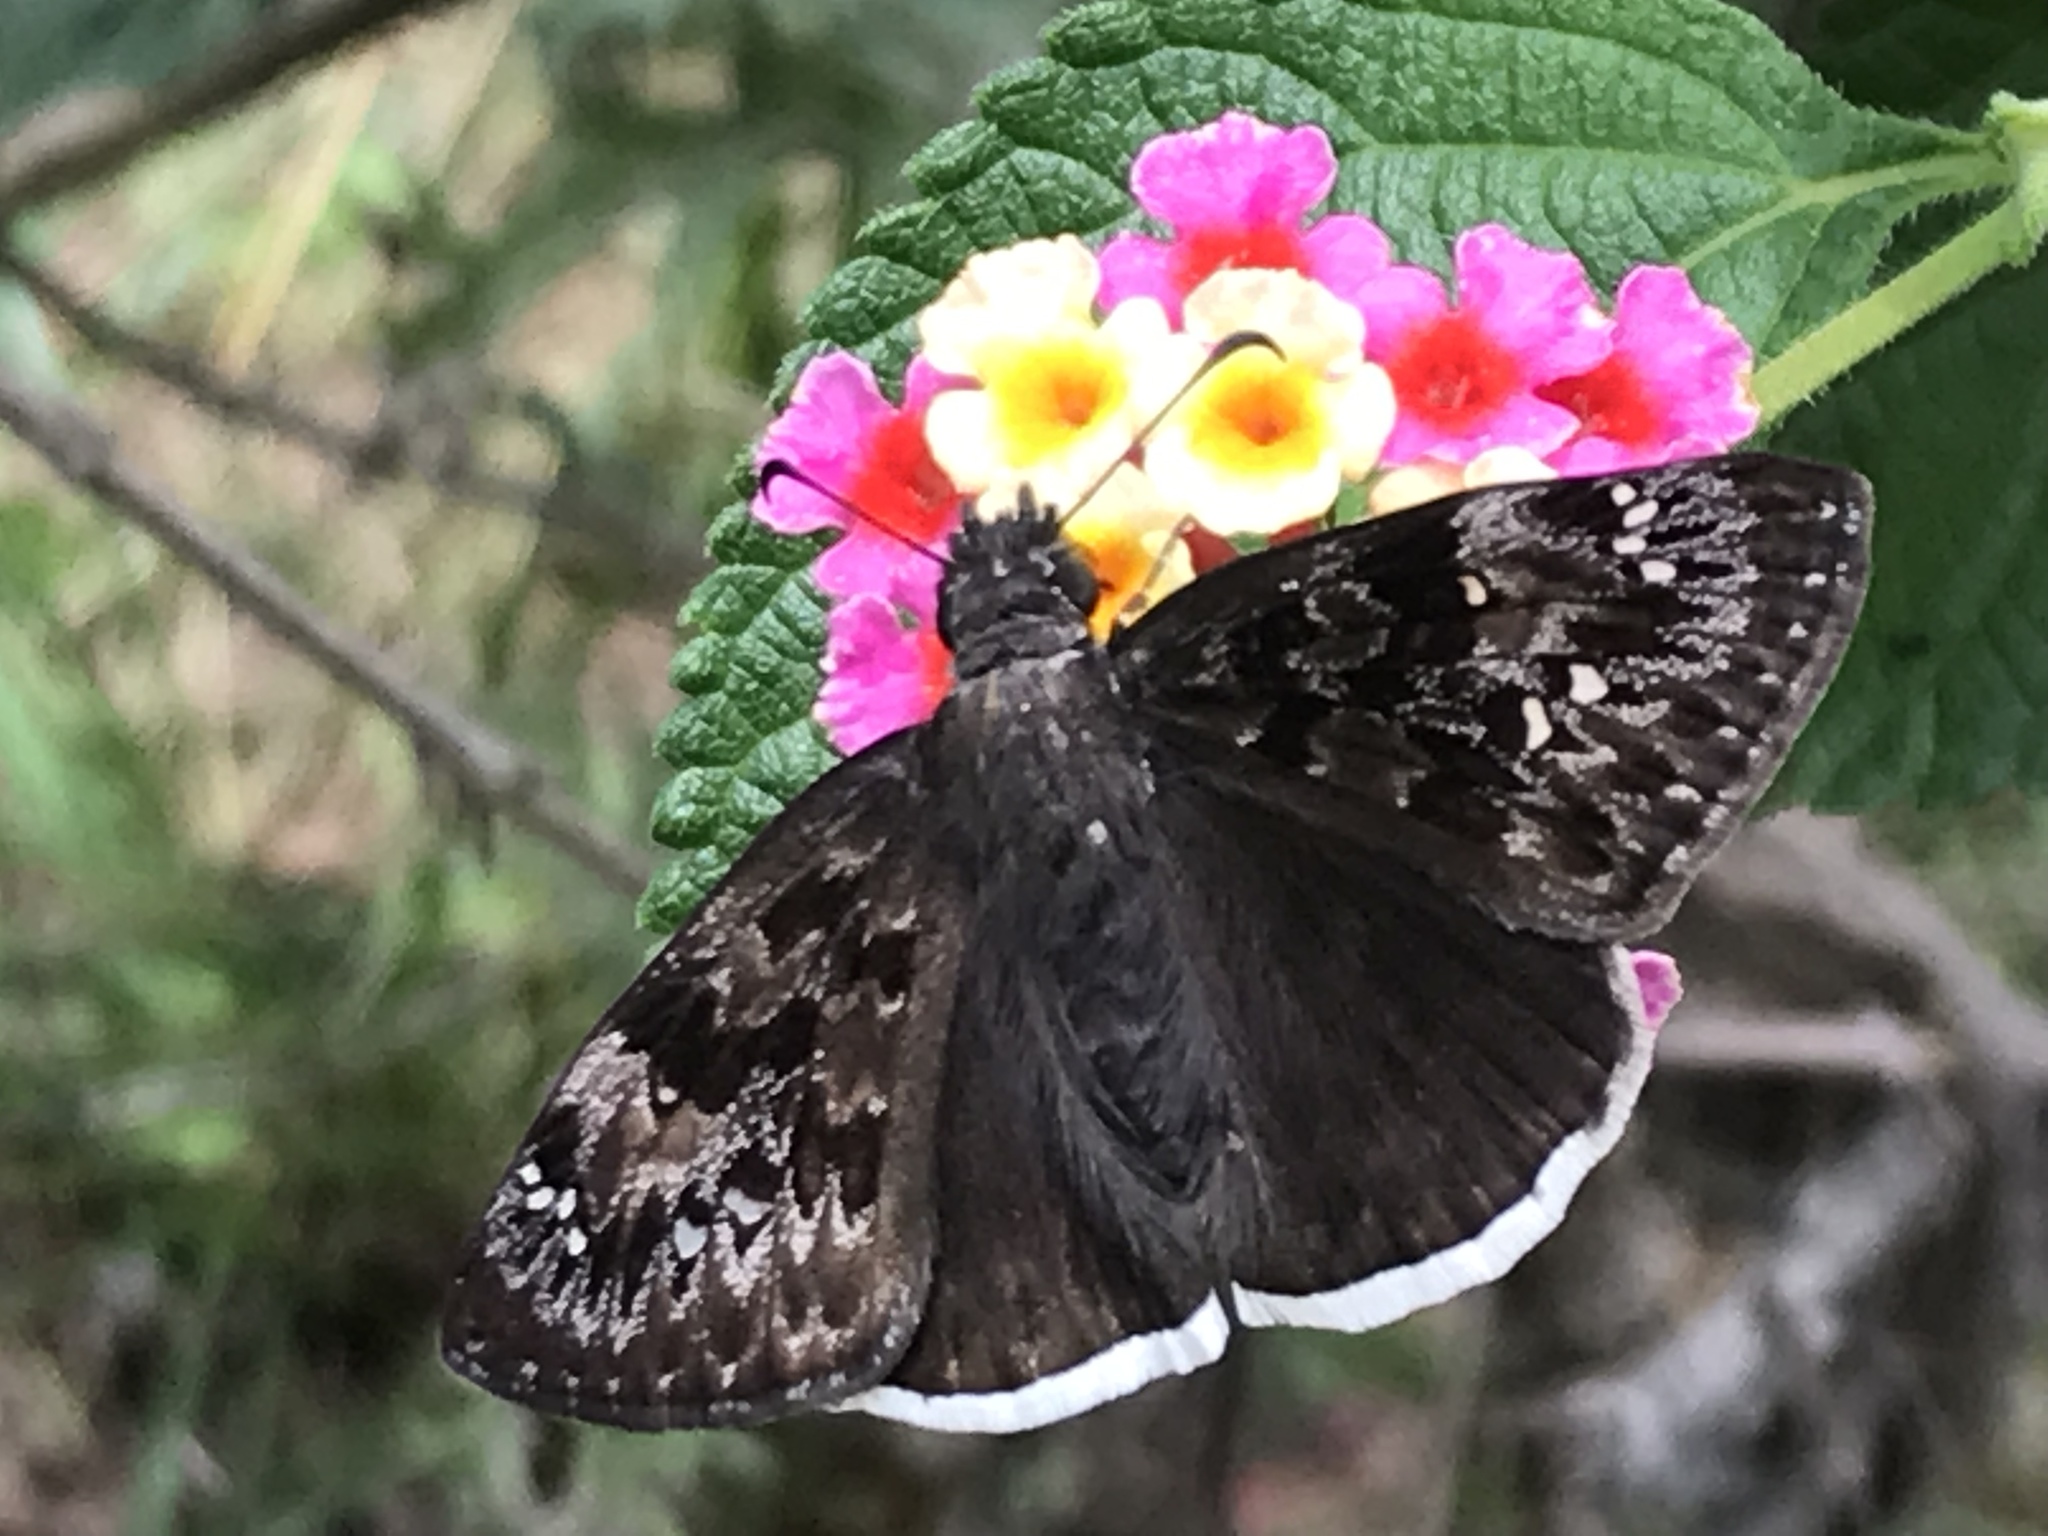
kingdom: Animalia
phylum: Arthropoda
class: Insecta
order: Lepidoptera
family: Hesperiidae
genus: Erynnis
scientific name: Erynnis juvenalis
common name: Juvenal's duskywing
